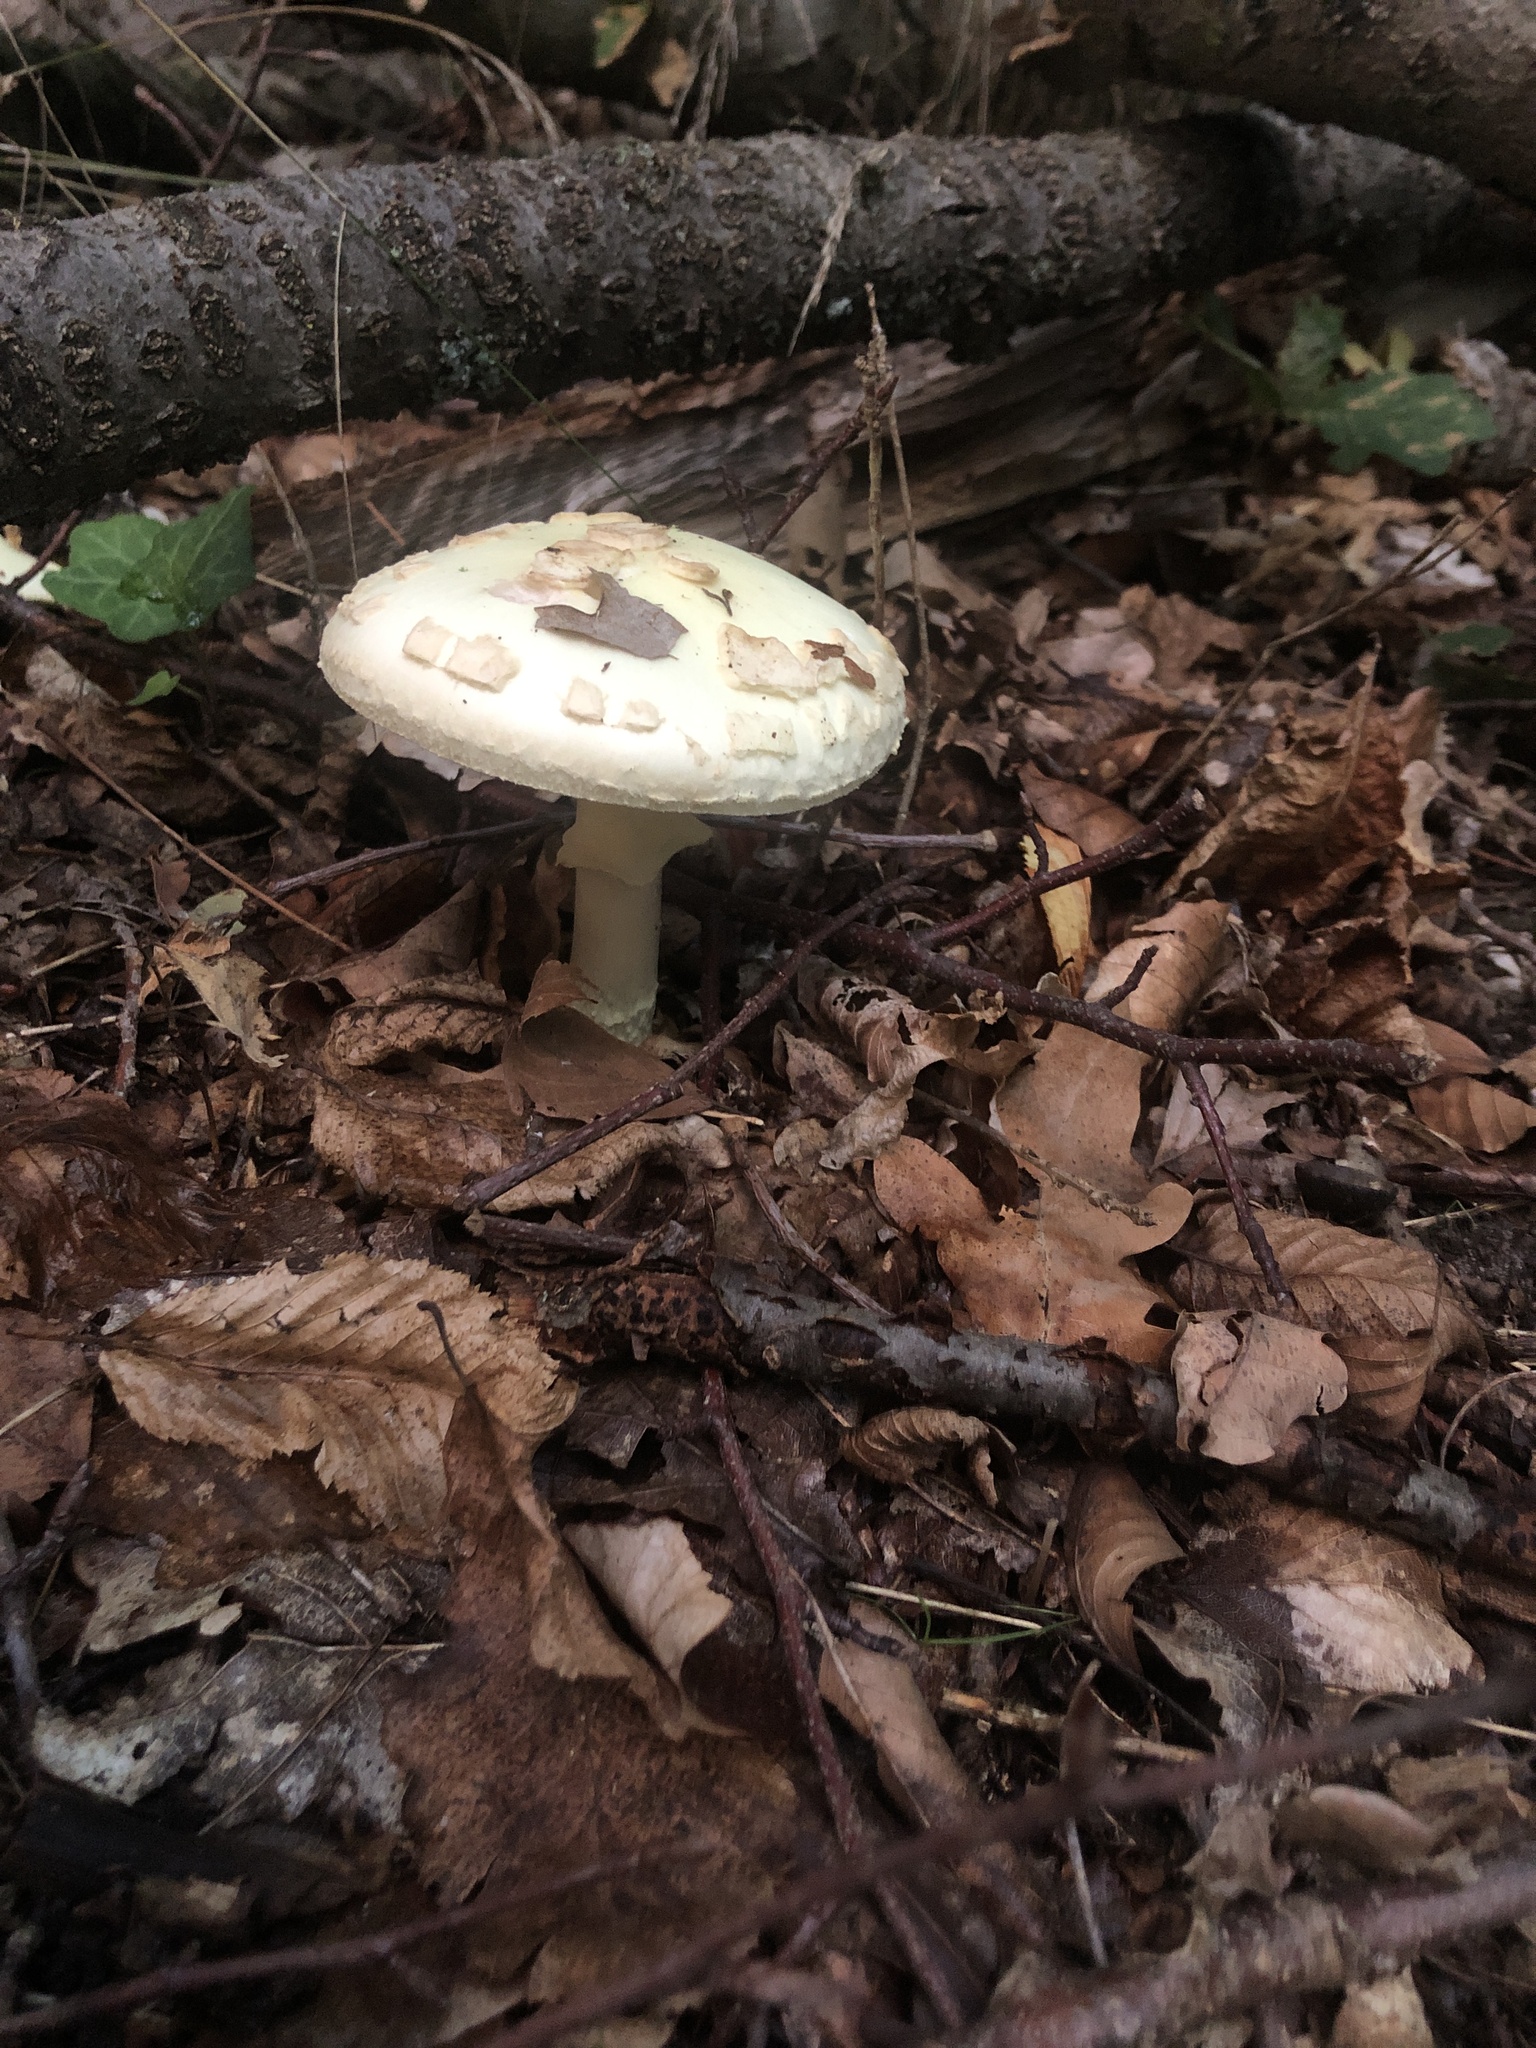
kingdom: Fungi
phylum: Basidiomycota
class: Agaricomycetes
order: Agaricales
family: Amanitaceae
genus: Amanita
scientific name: Amanita citrina
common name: False death-cap
